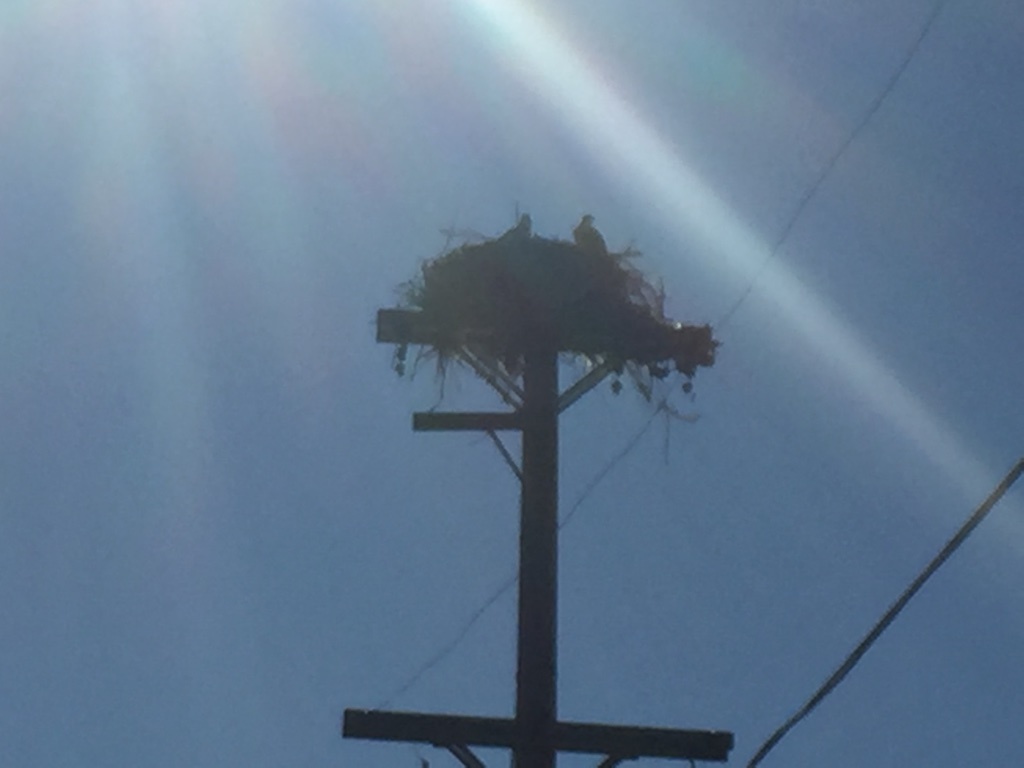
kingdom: Animalia
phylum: Chordata
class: Aves
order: Accipitriformes
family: Pandionidae
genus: Pandion
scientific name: Pandion haliaetus
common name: Osprey
